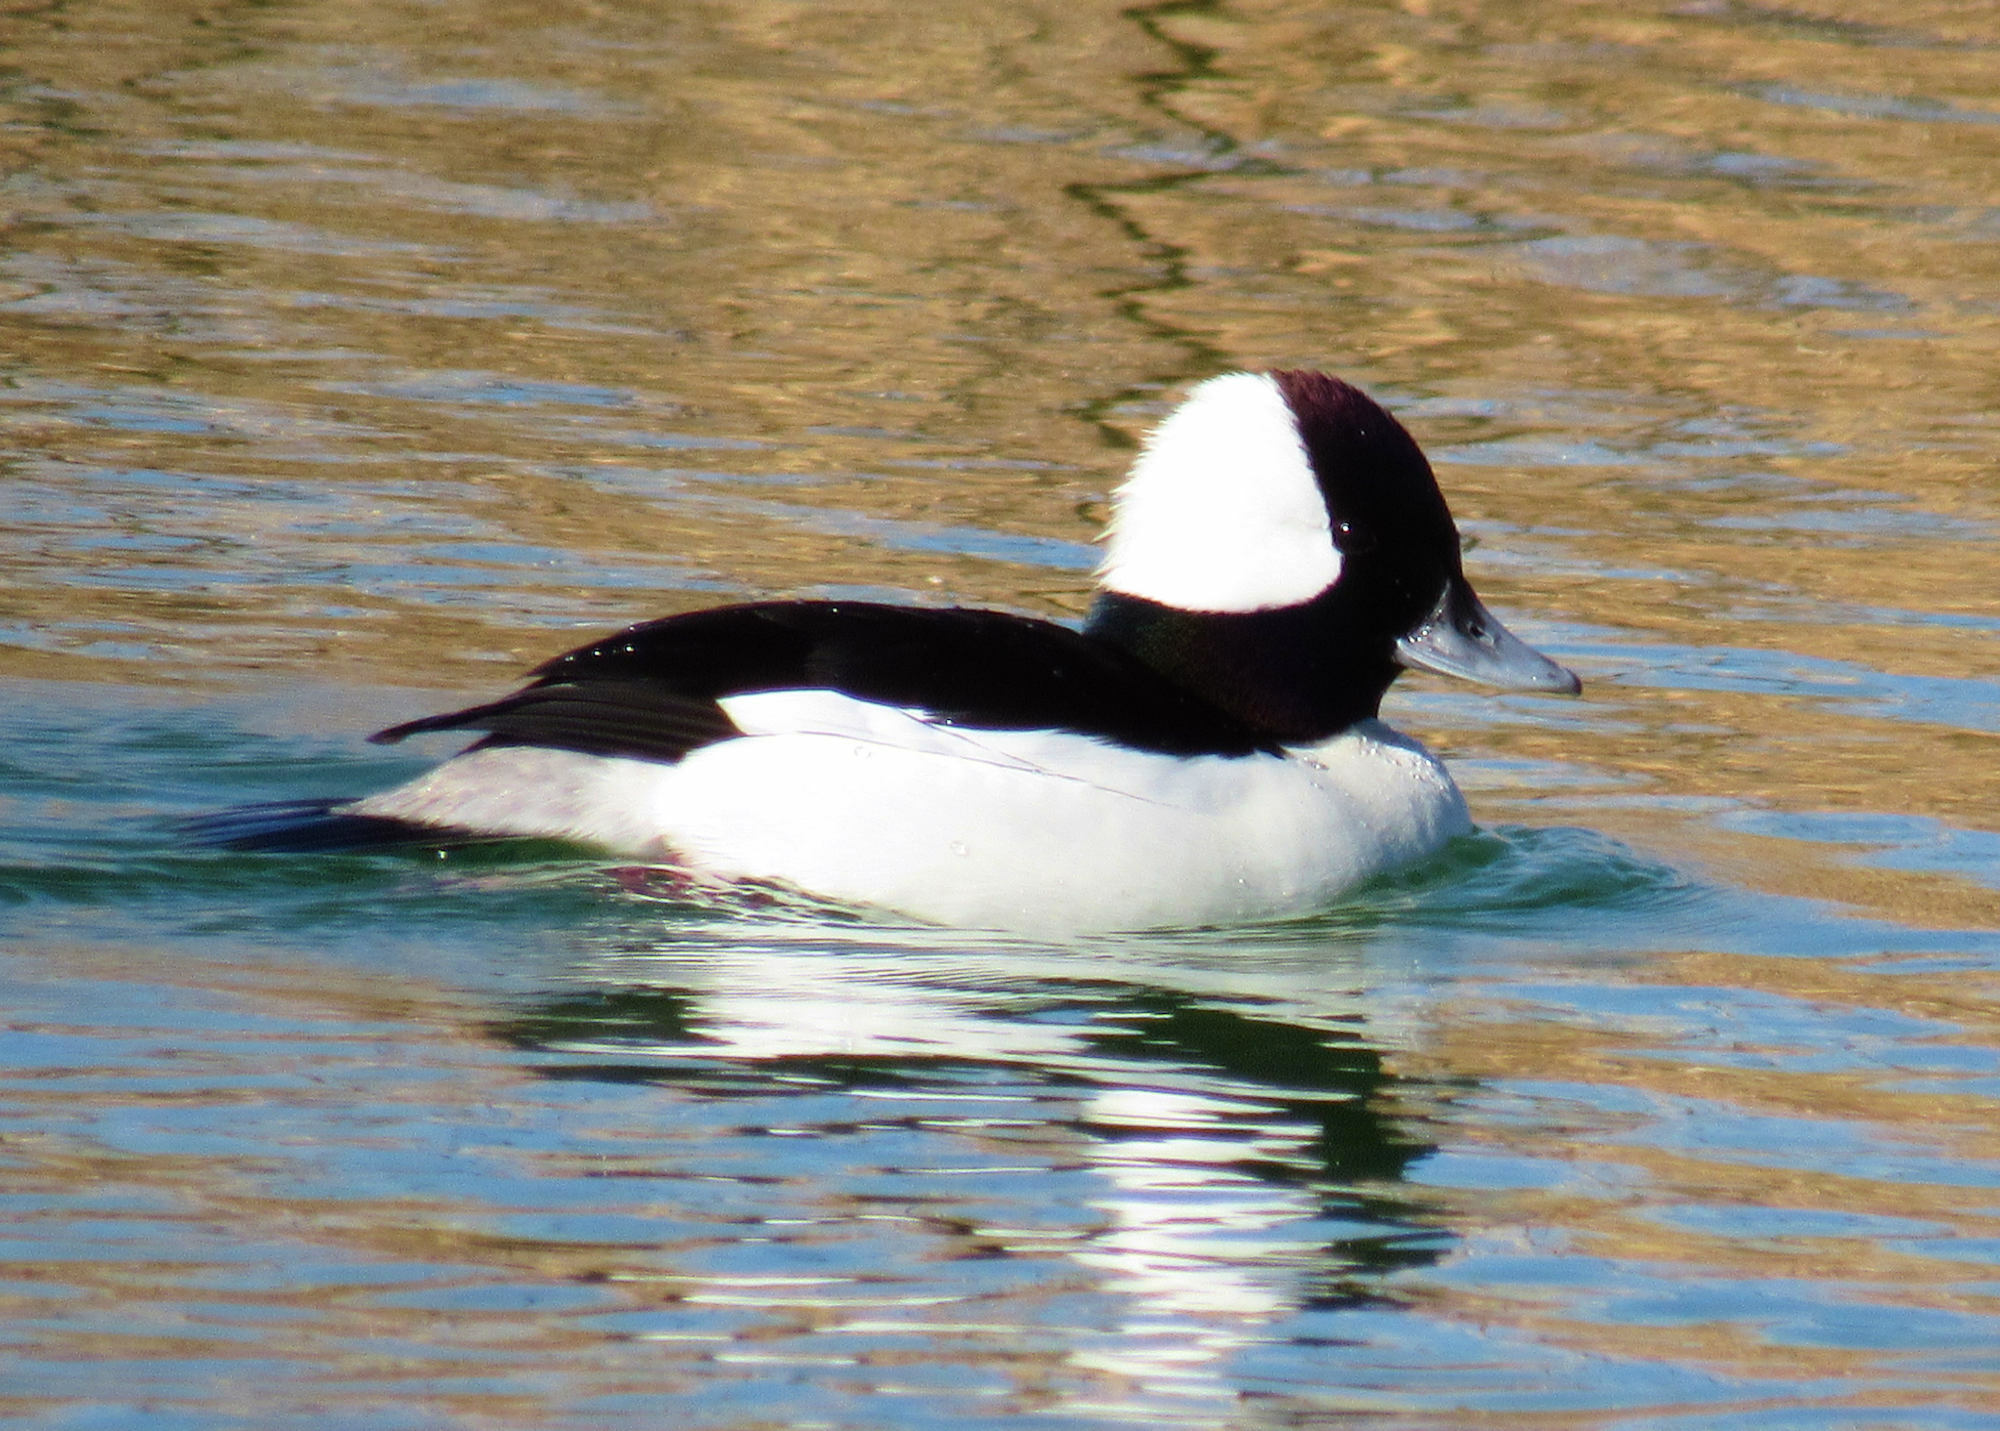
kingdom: Animalia
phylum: Chordata
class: Aves
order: Anseriformes
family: Anatidae
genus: Bucephala
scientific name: Bucephala albeola
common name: Bufflehead
